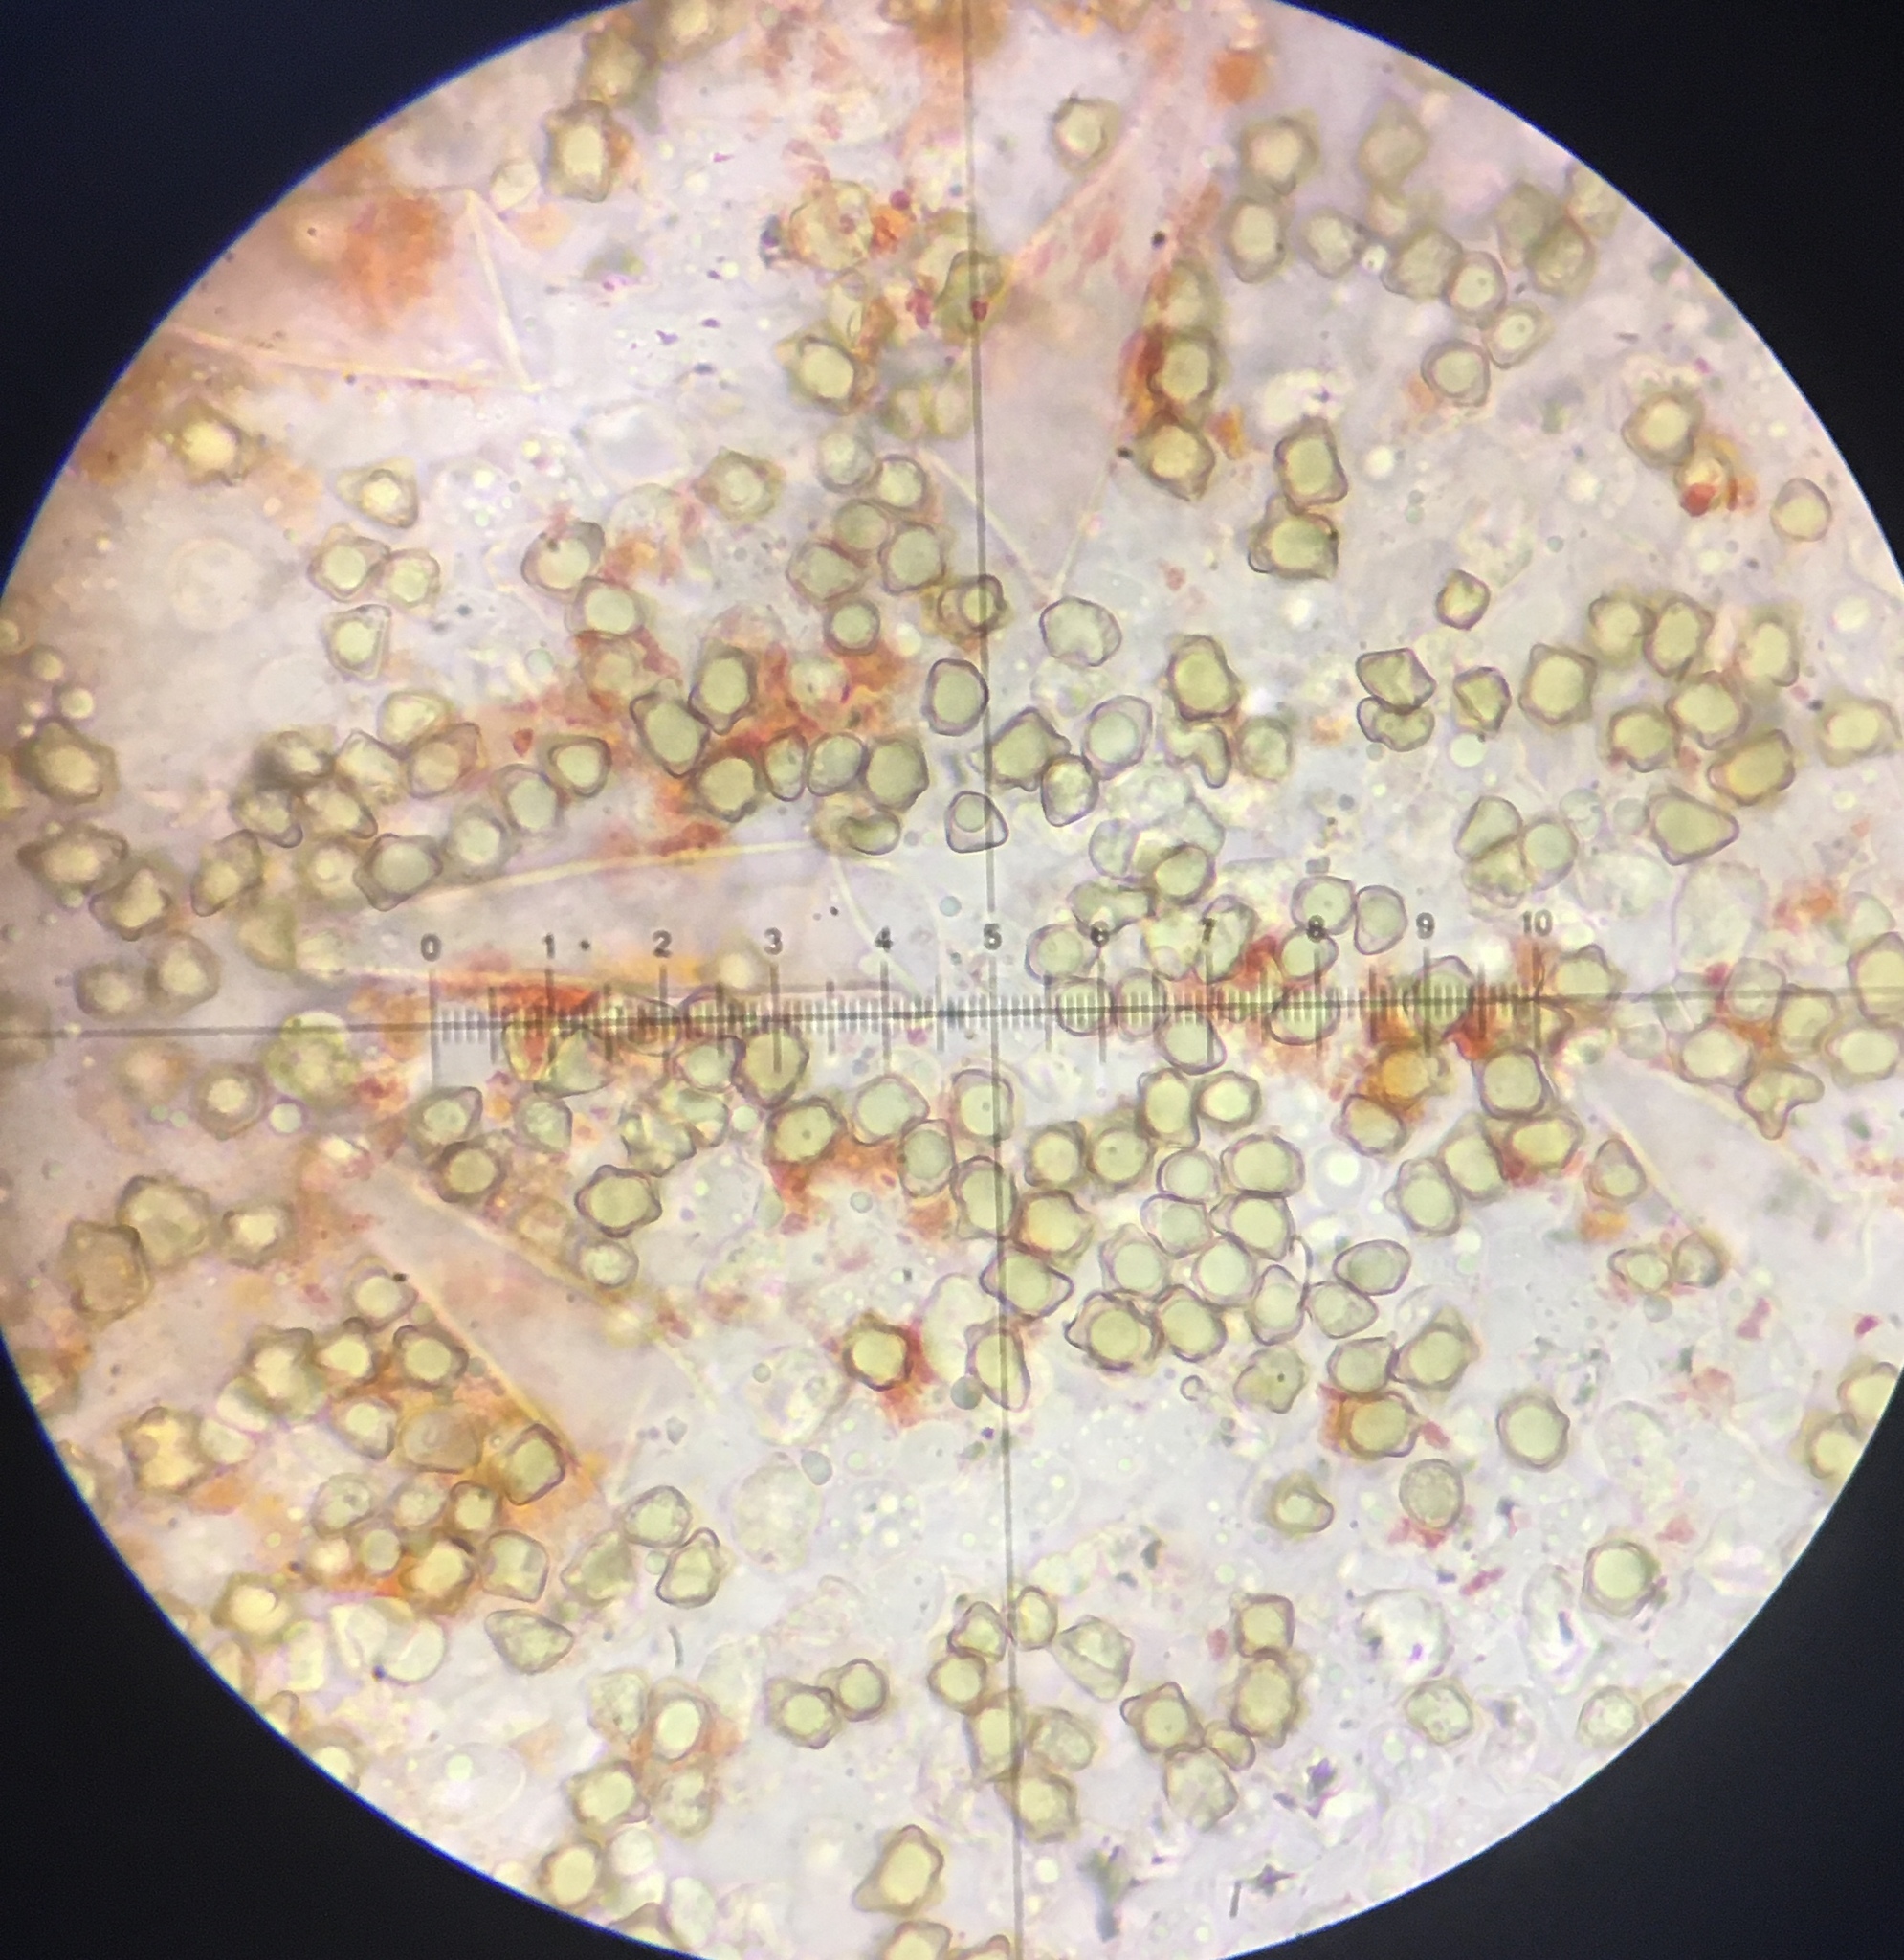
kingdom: Fungi
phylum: Basidiomycota
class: Agaricomycetes
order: Agaricales
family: Inocybaceae
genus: Inocybe
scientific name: Inocybe xanthomelas
